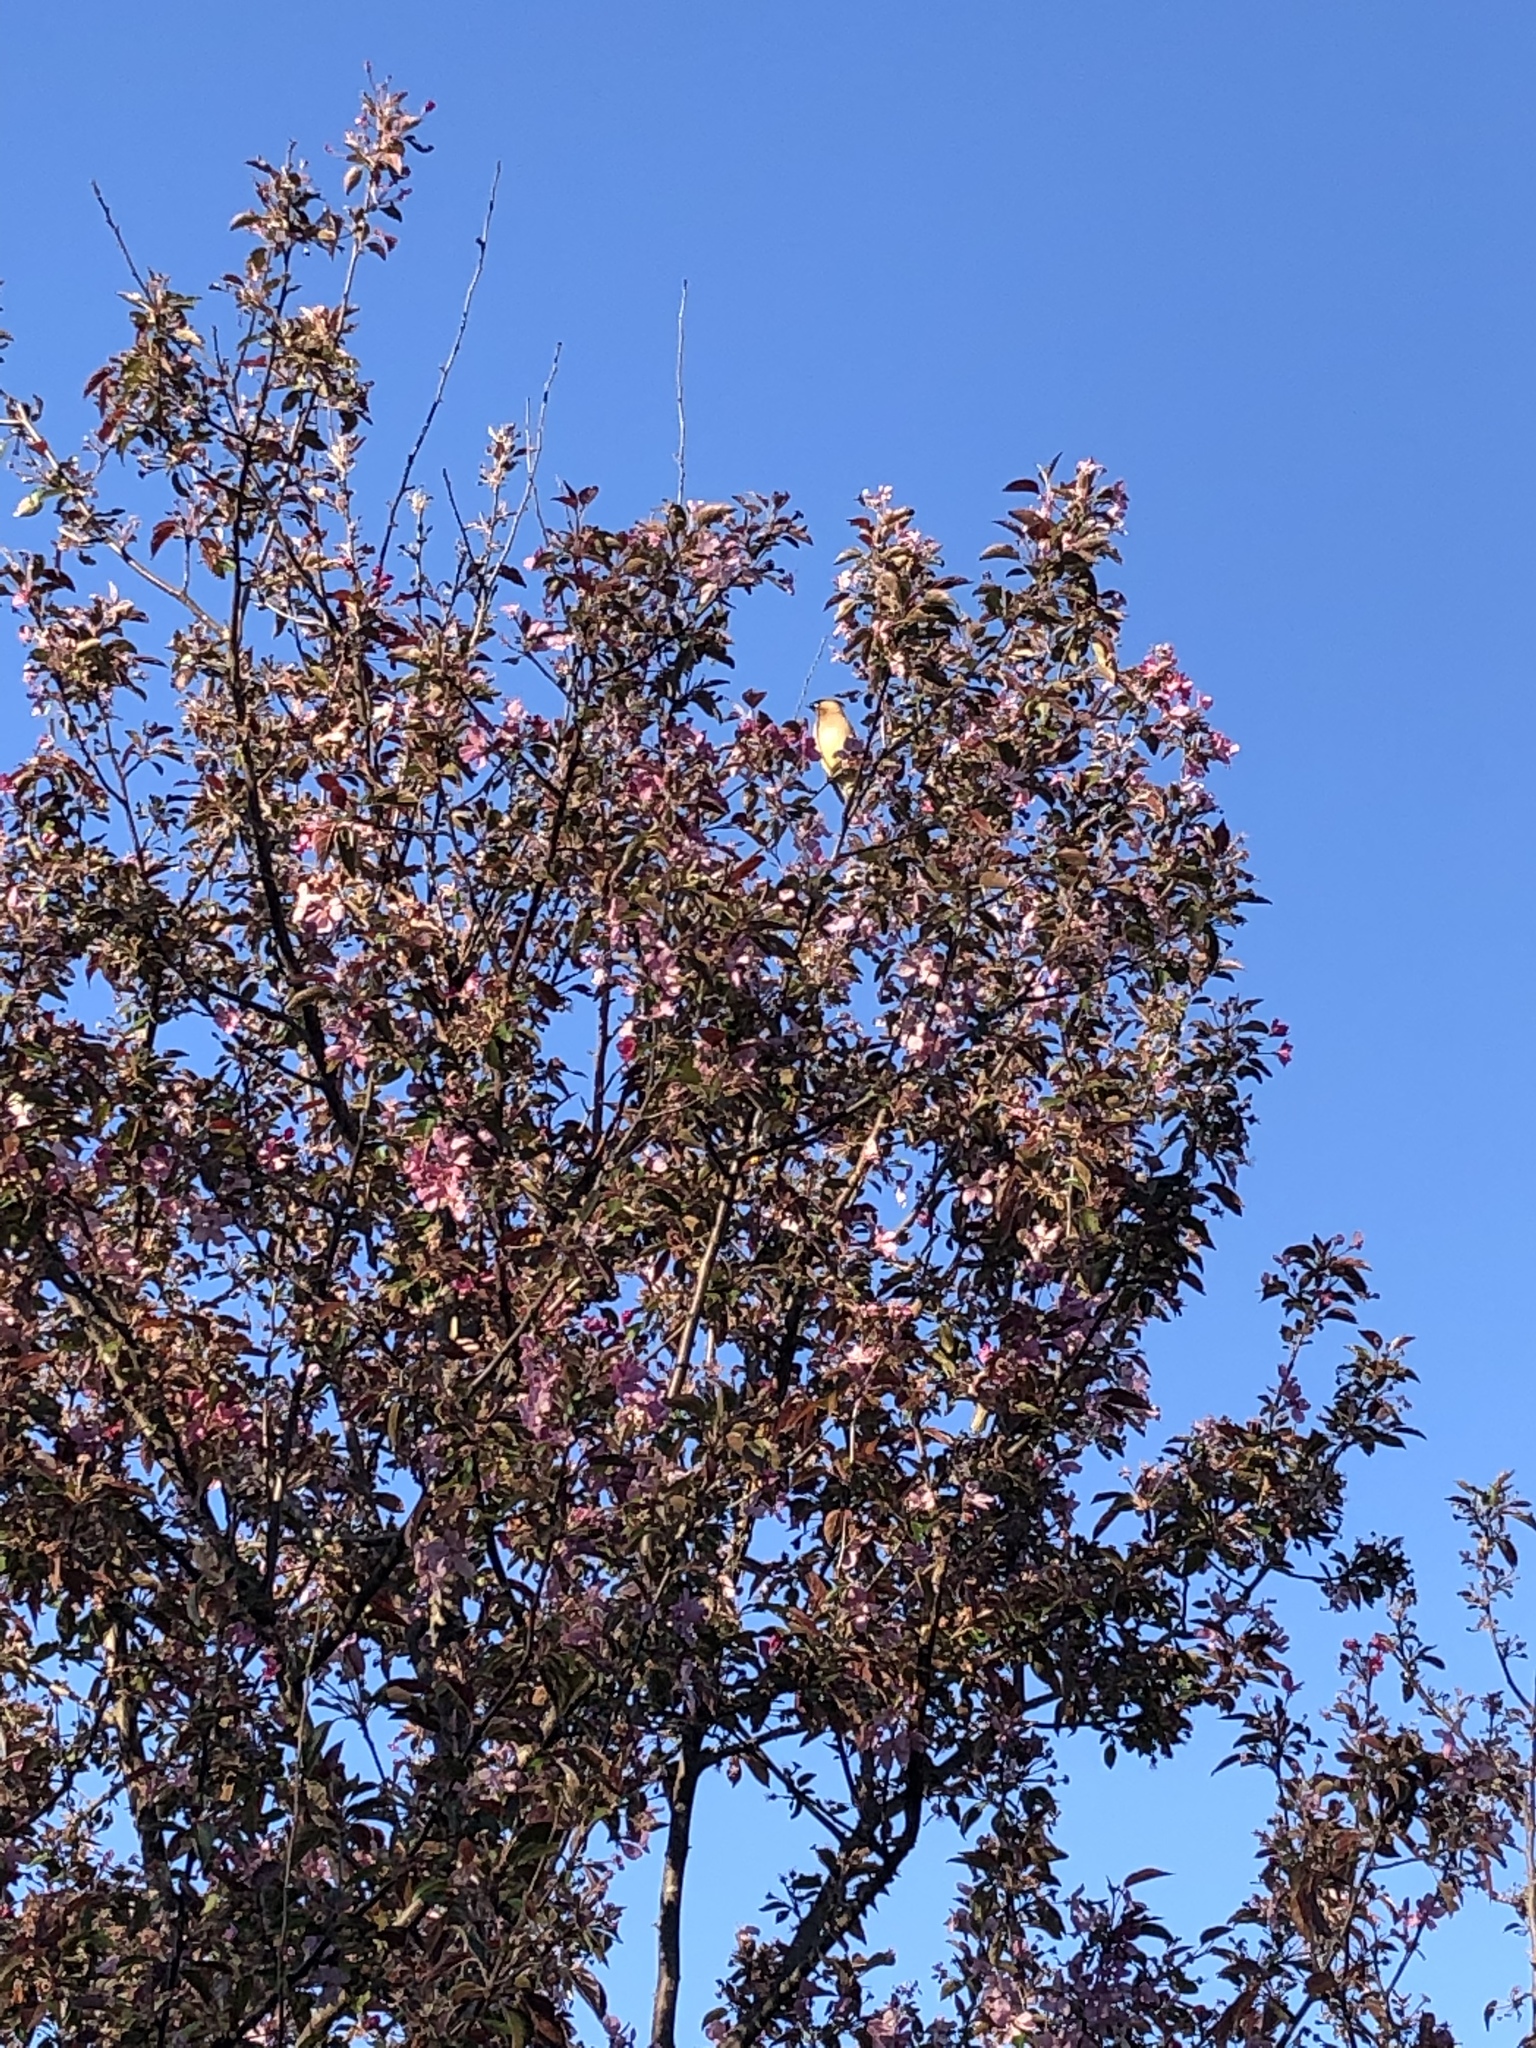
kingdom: Animalia
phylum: Chordata
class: Aves
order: Passeriformes
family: Bombycillidae
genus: Bombycilla
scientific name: Bombycilla cedrorum
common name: Cedar waxwing
